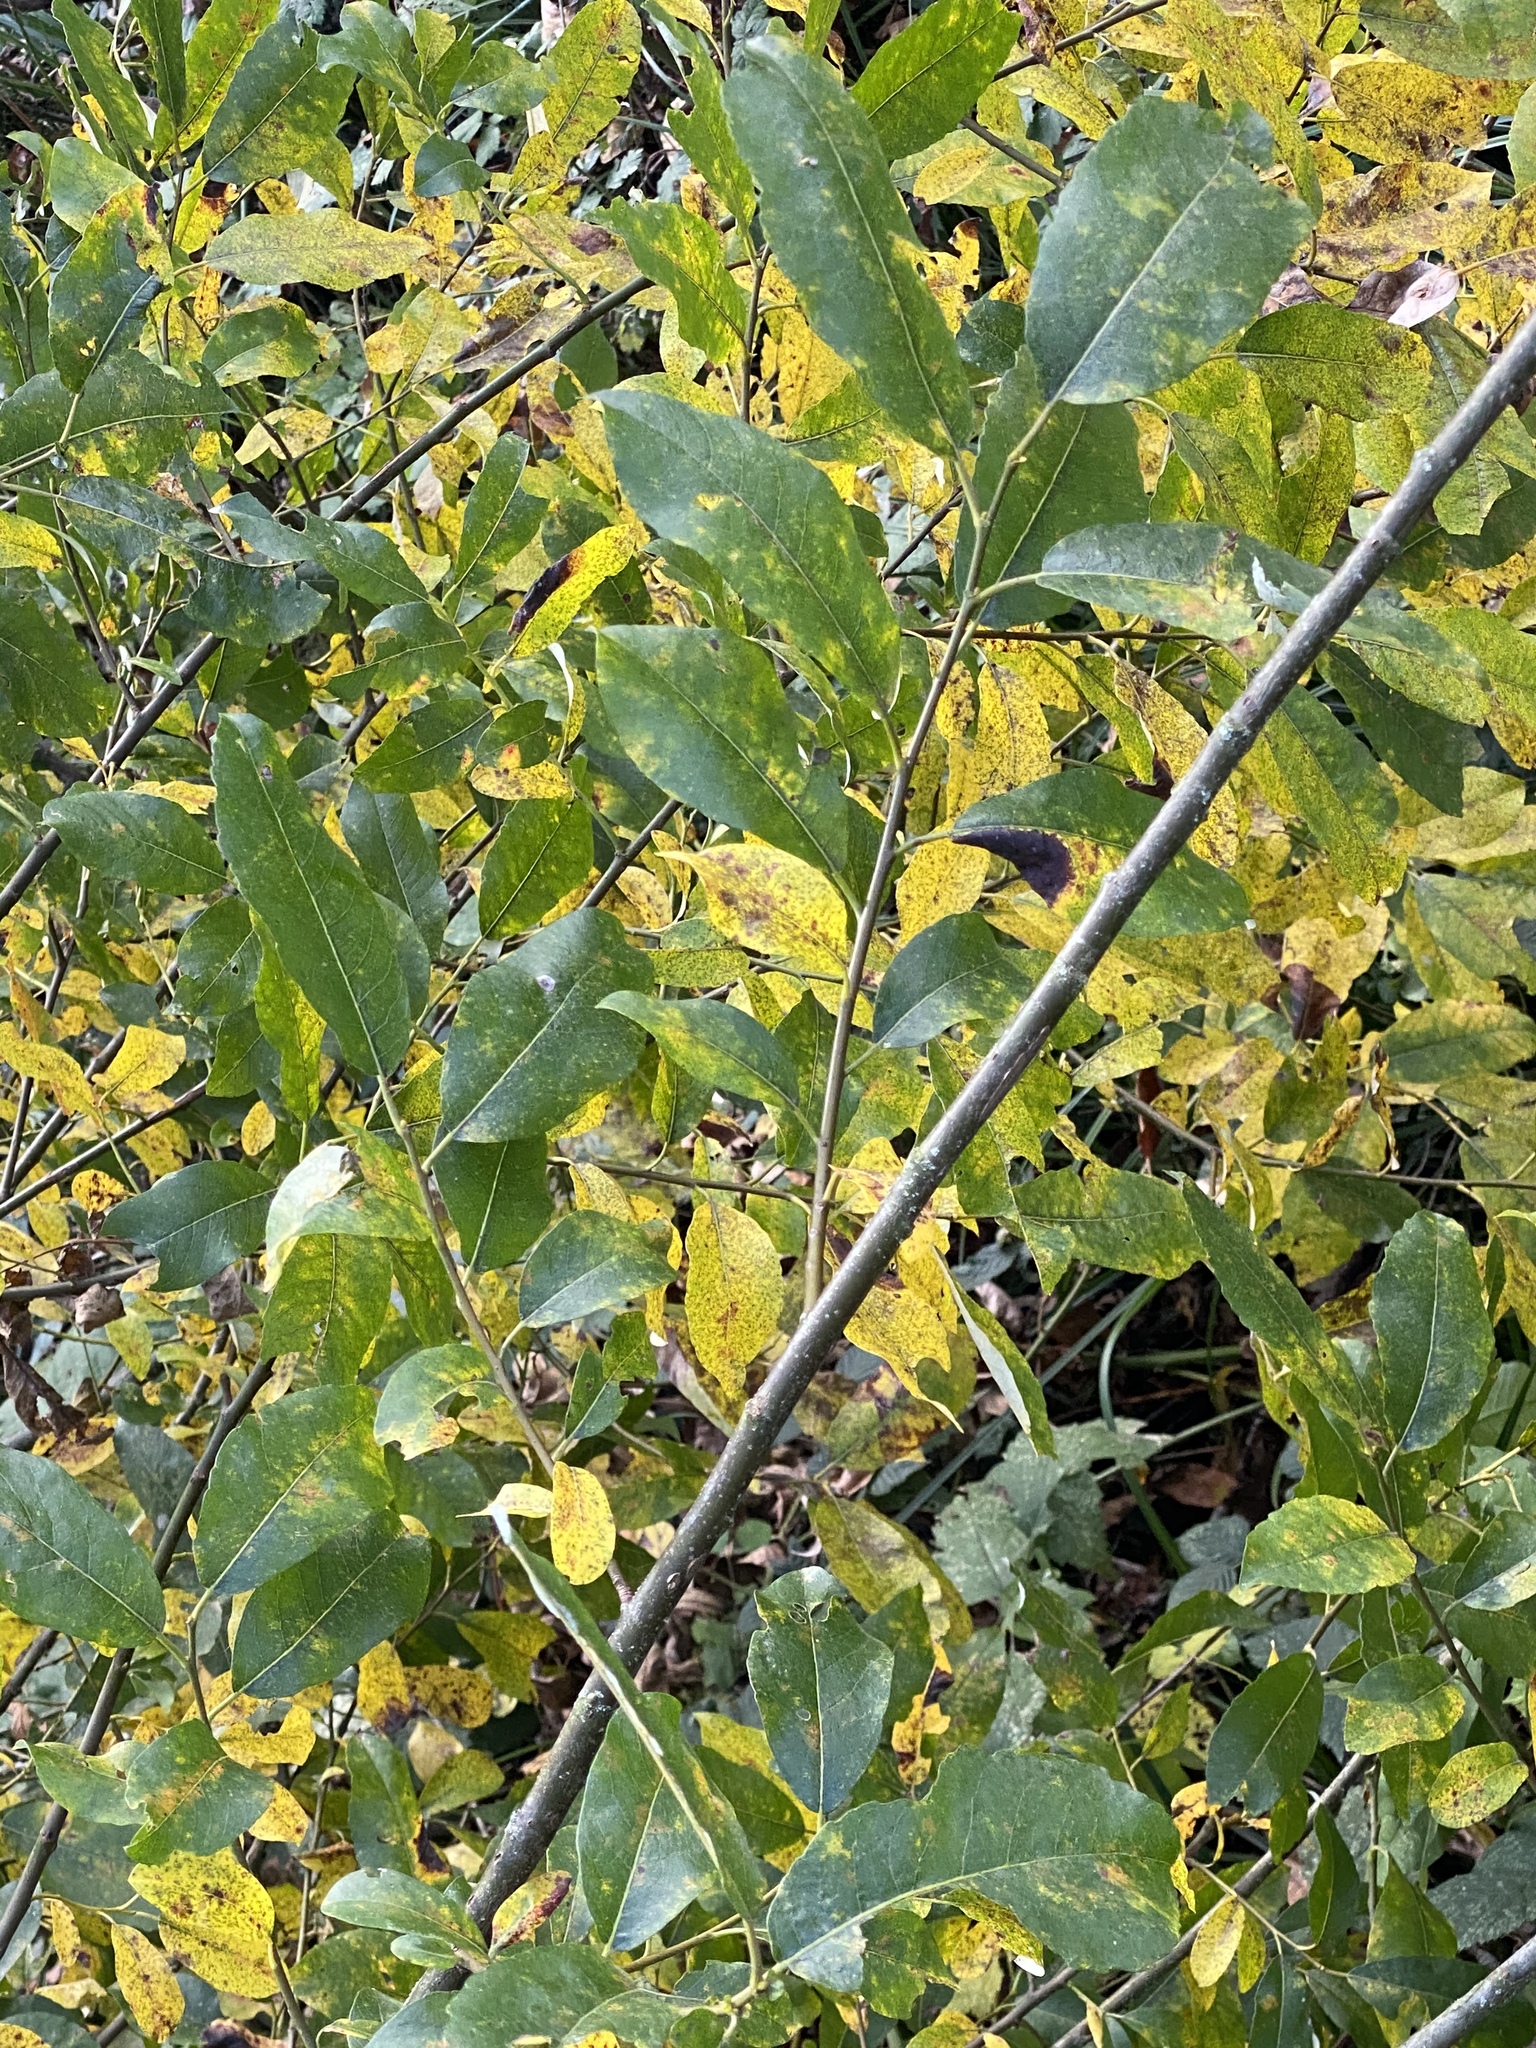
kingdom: Plantae
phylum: Tracheophyta
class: Magnoliopsida
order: Malpighiales
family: Salicaceae
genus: Salix
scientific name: Salix hookeriana
